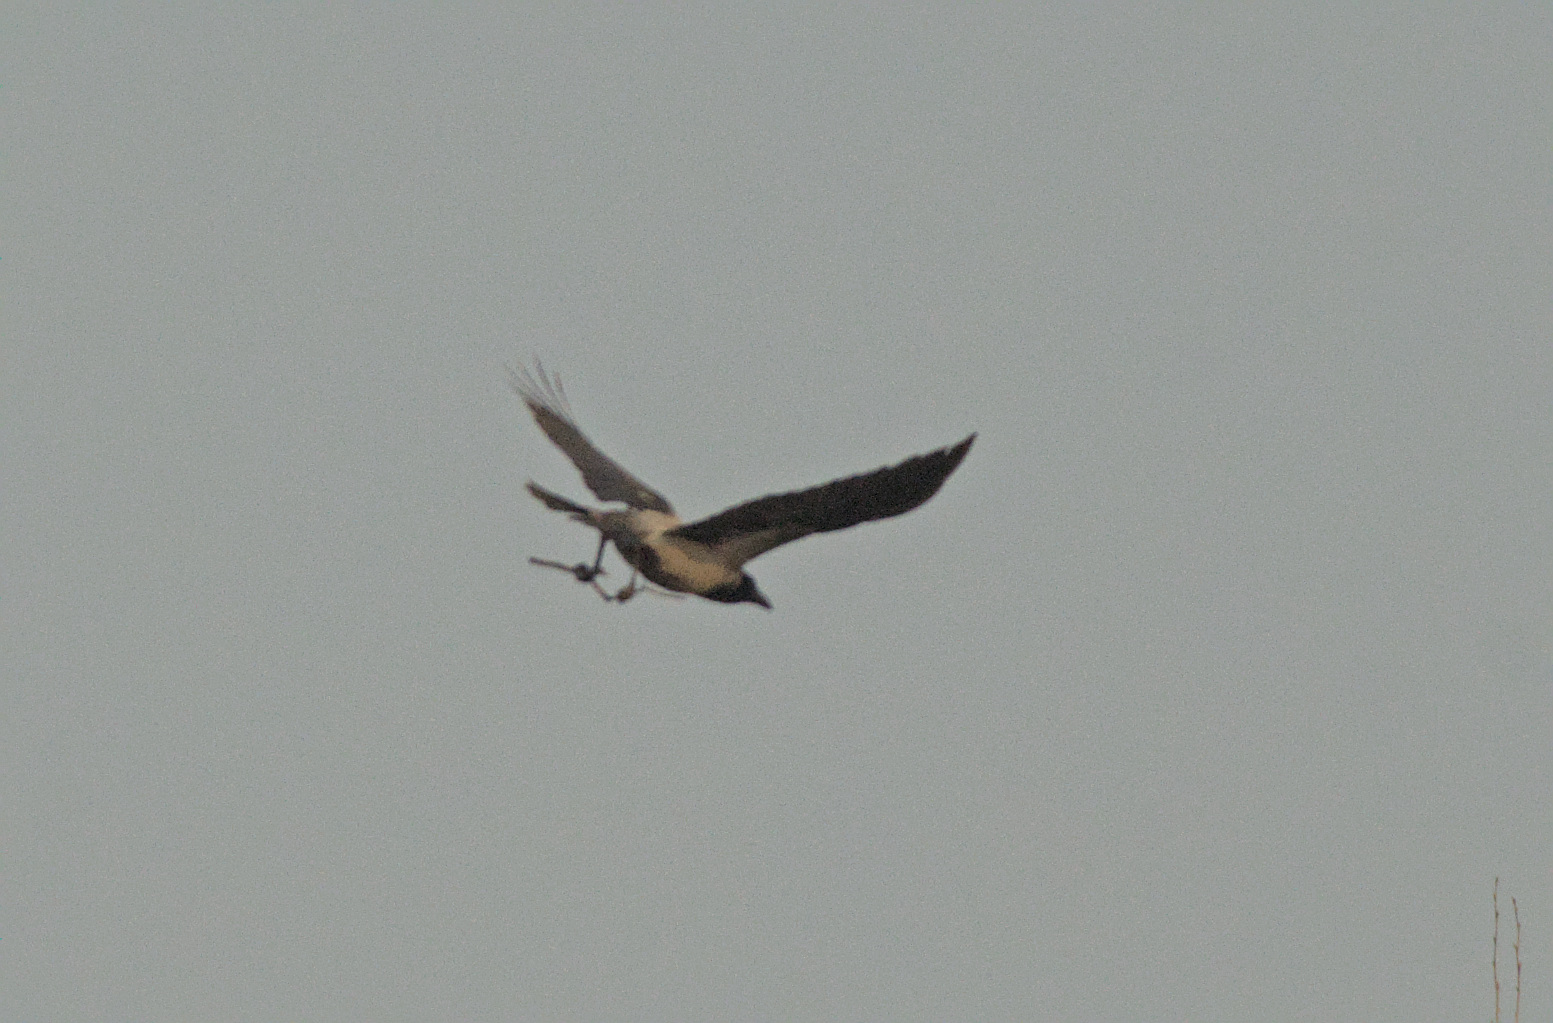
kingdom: Animalia
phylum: Chordata
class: Aves
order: Passeriformes
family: Corvidae
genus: Corvus
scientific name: Corvus cornix
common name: Hooded crow
